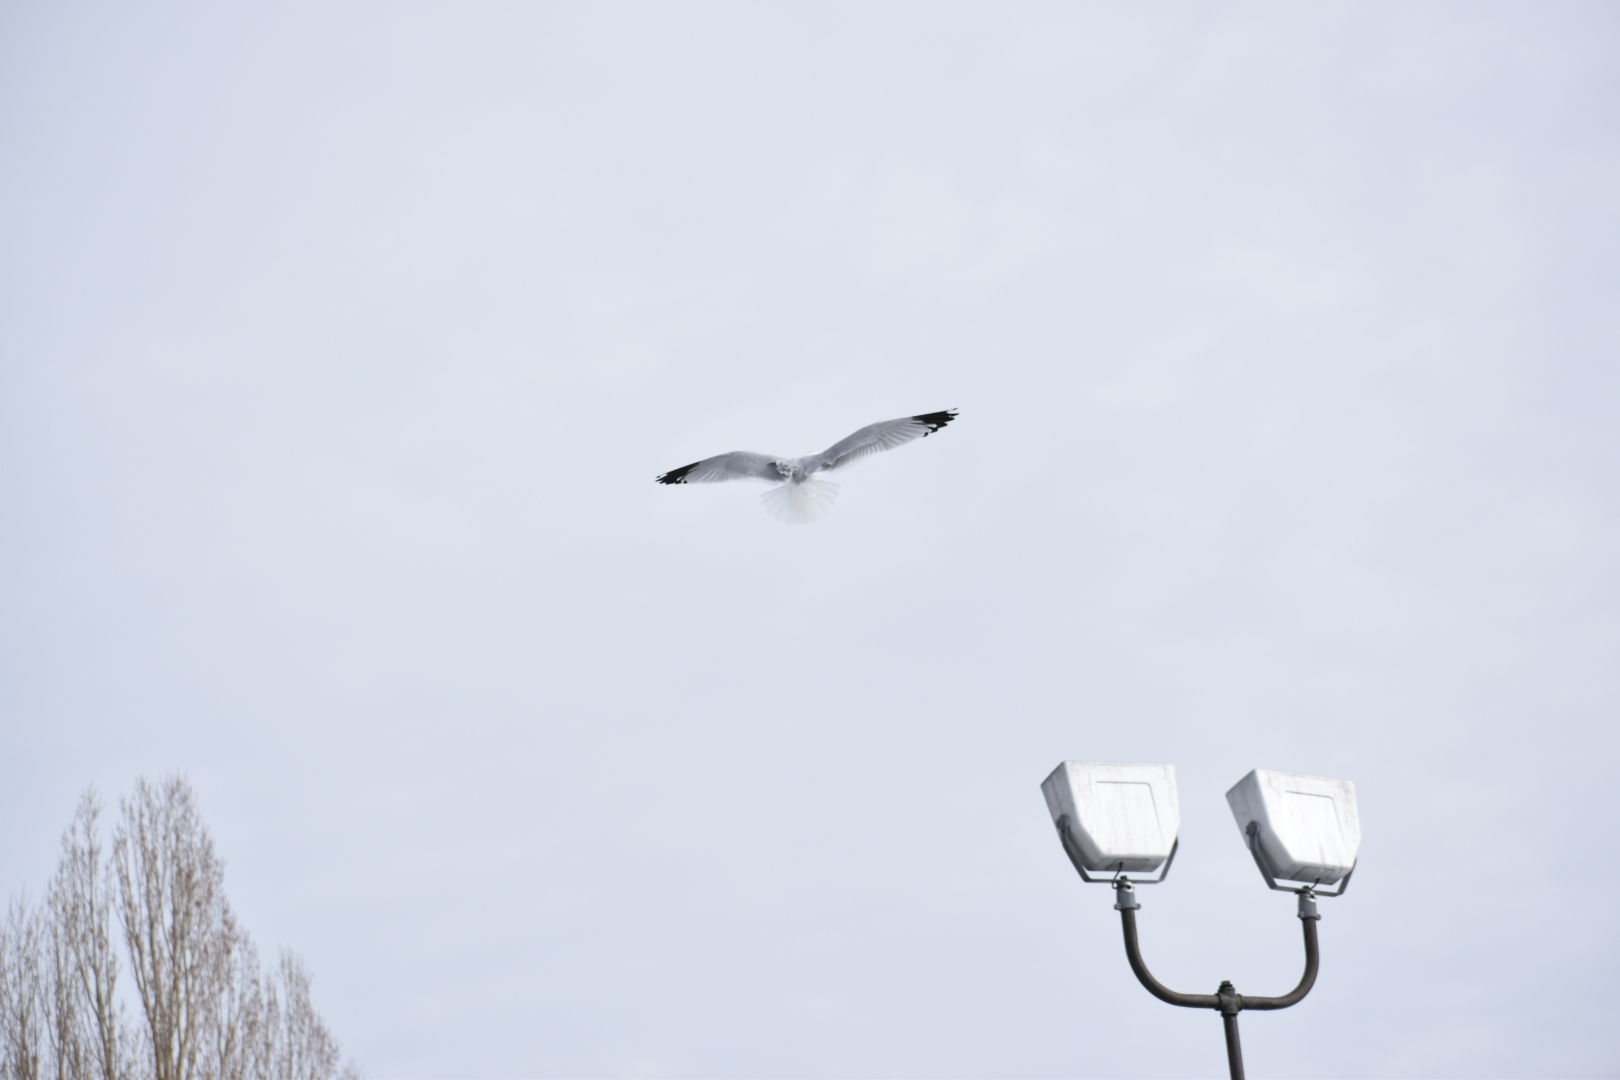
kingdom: Animalia
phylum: Chordata
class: Aves
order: Charadriiformes
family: Laridae
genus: Larus
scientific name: Larus delawarensis
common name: Ring-billed gull
